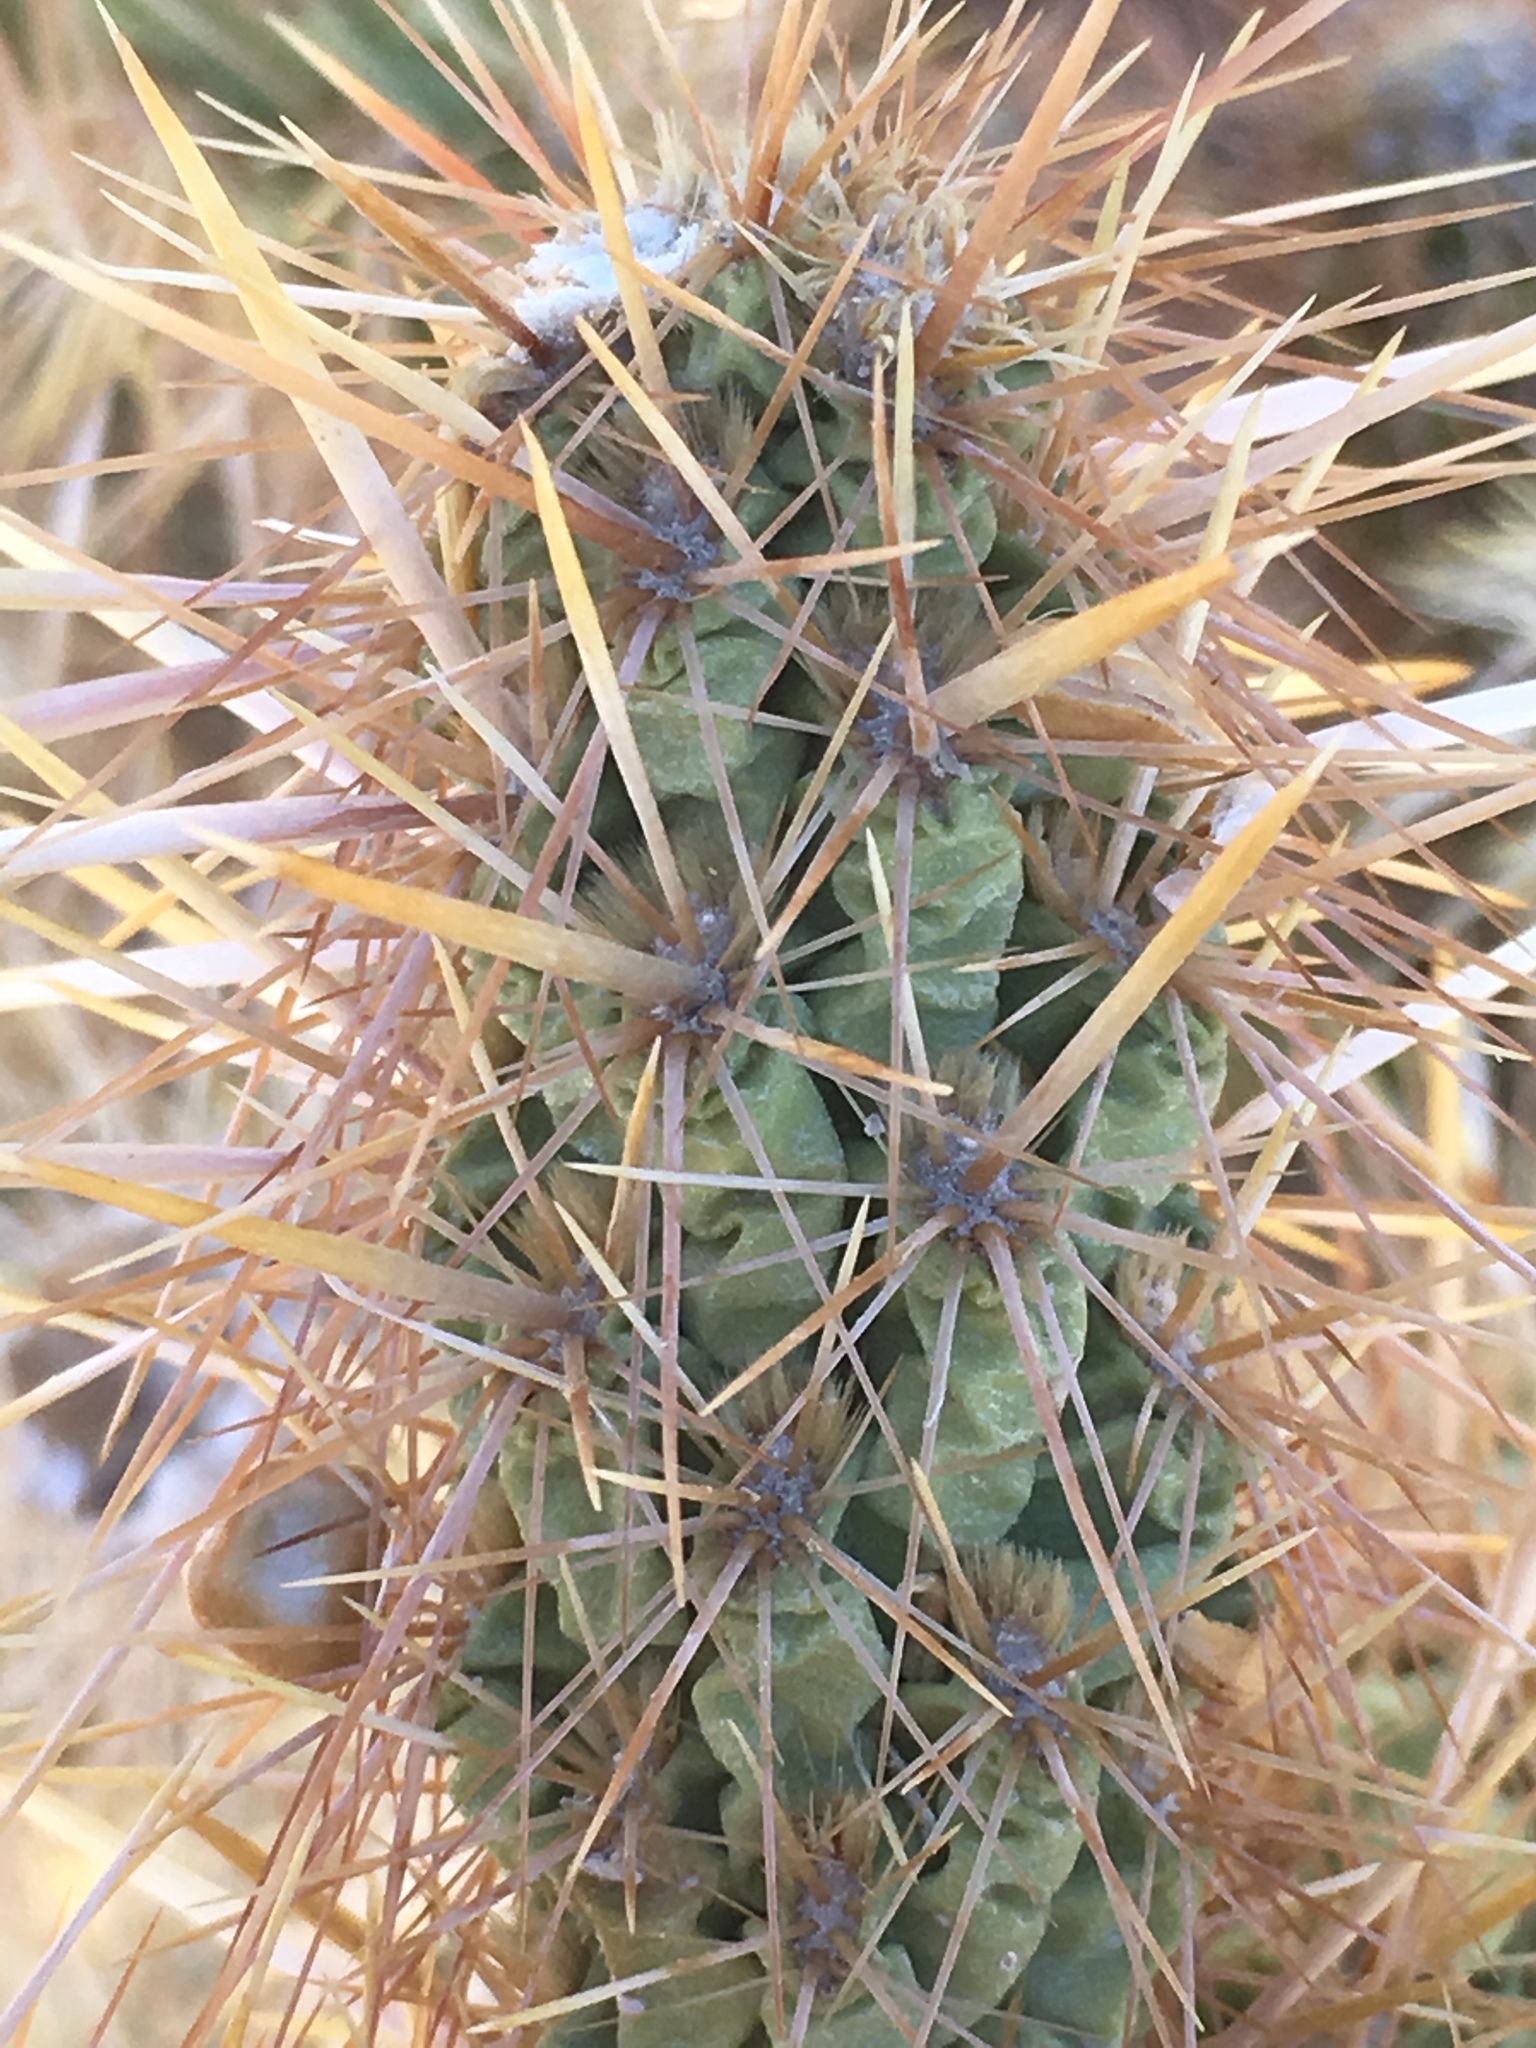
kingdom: Plantae
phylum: Tracheophyta
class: Magnoliopsida
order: Caryophyllales
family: Cactaceae
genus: Cylindropuntia
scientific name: Cylindropuntia echinocarpa
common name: Ground cholla
